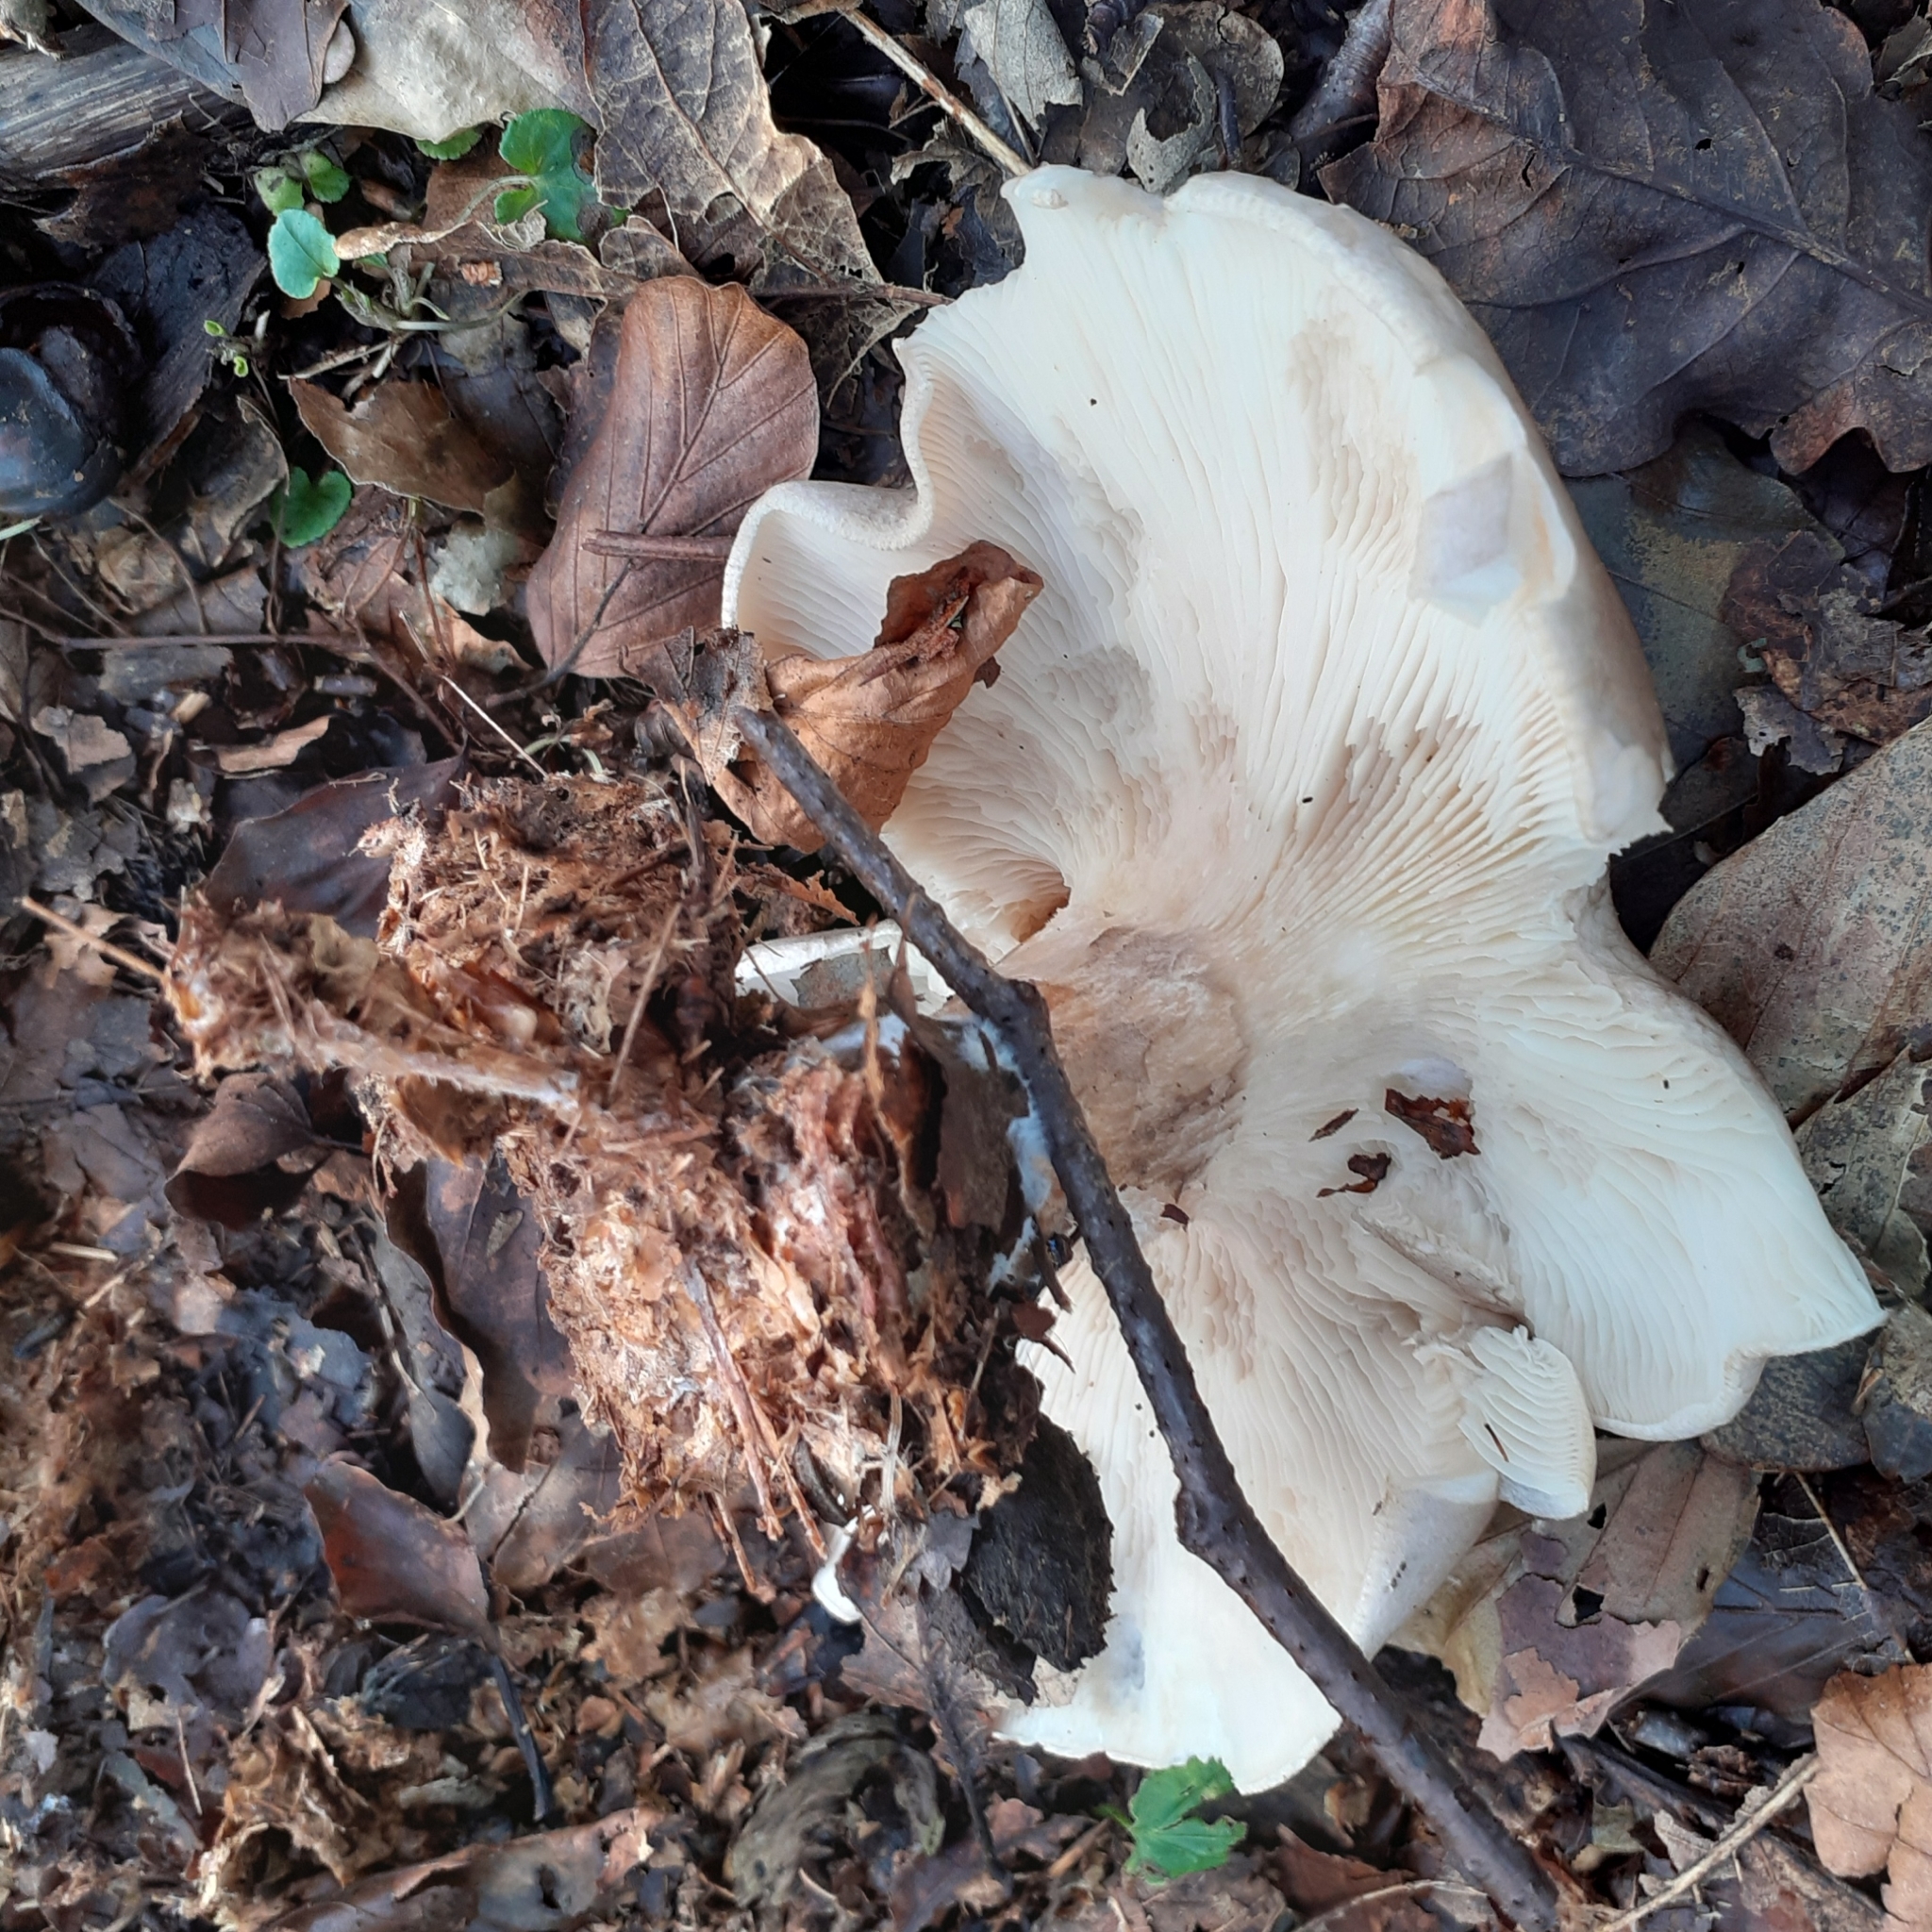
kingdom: Fungi
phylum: Basidiomycota
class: Agaricomycetes
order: Agaricales
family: Tricholomataceae
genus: Clitocybe
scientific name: Clitocybe nebularis
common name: Clouded agaric
